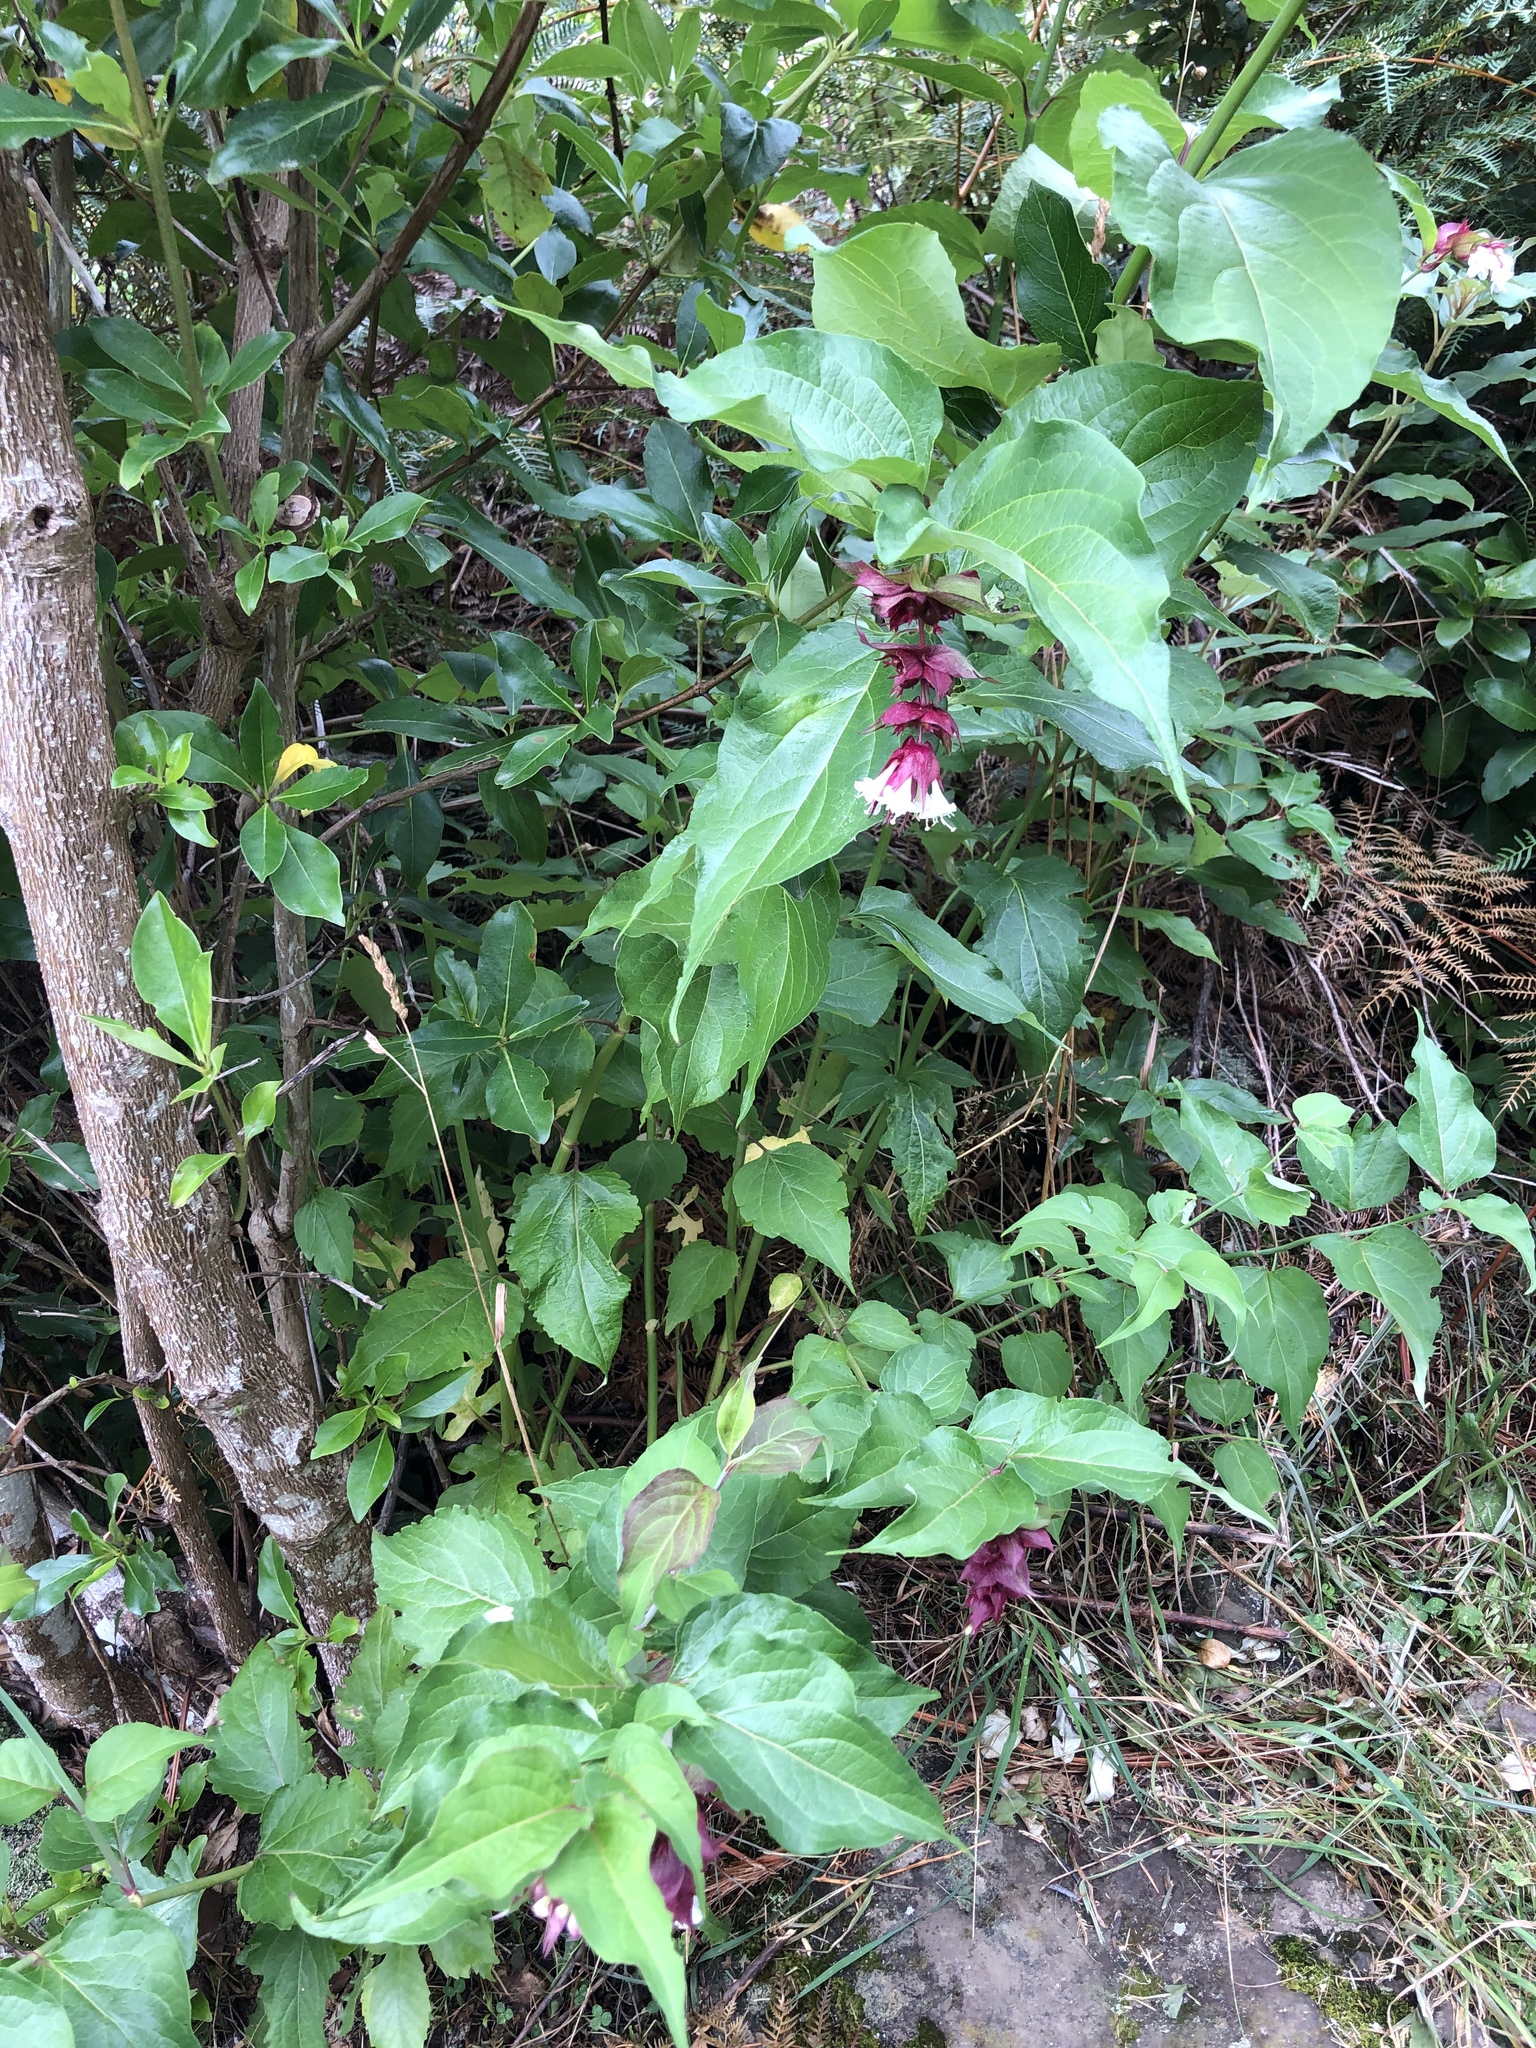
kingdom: Plantae
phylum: Tracheophyta
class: Magnoliopsida
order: Dipsacales
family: Caprifoliaceae
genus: Leycesteria
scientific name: Leycesteria formosa
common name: Himalayan honeysuckle
